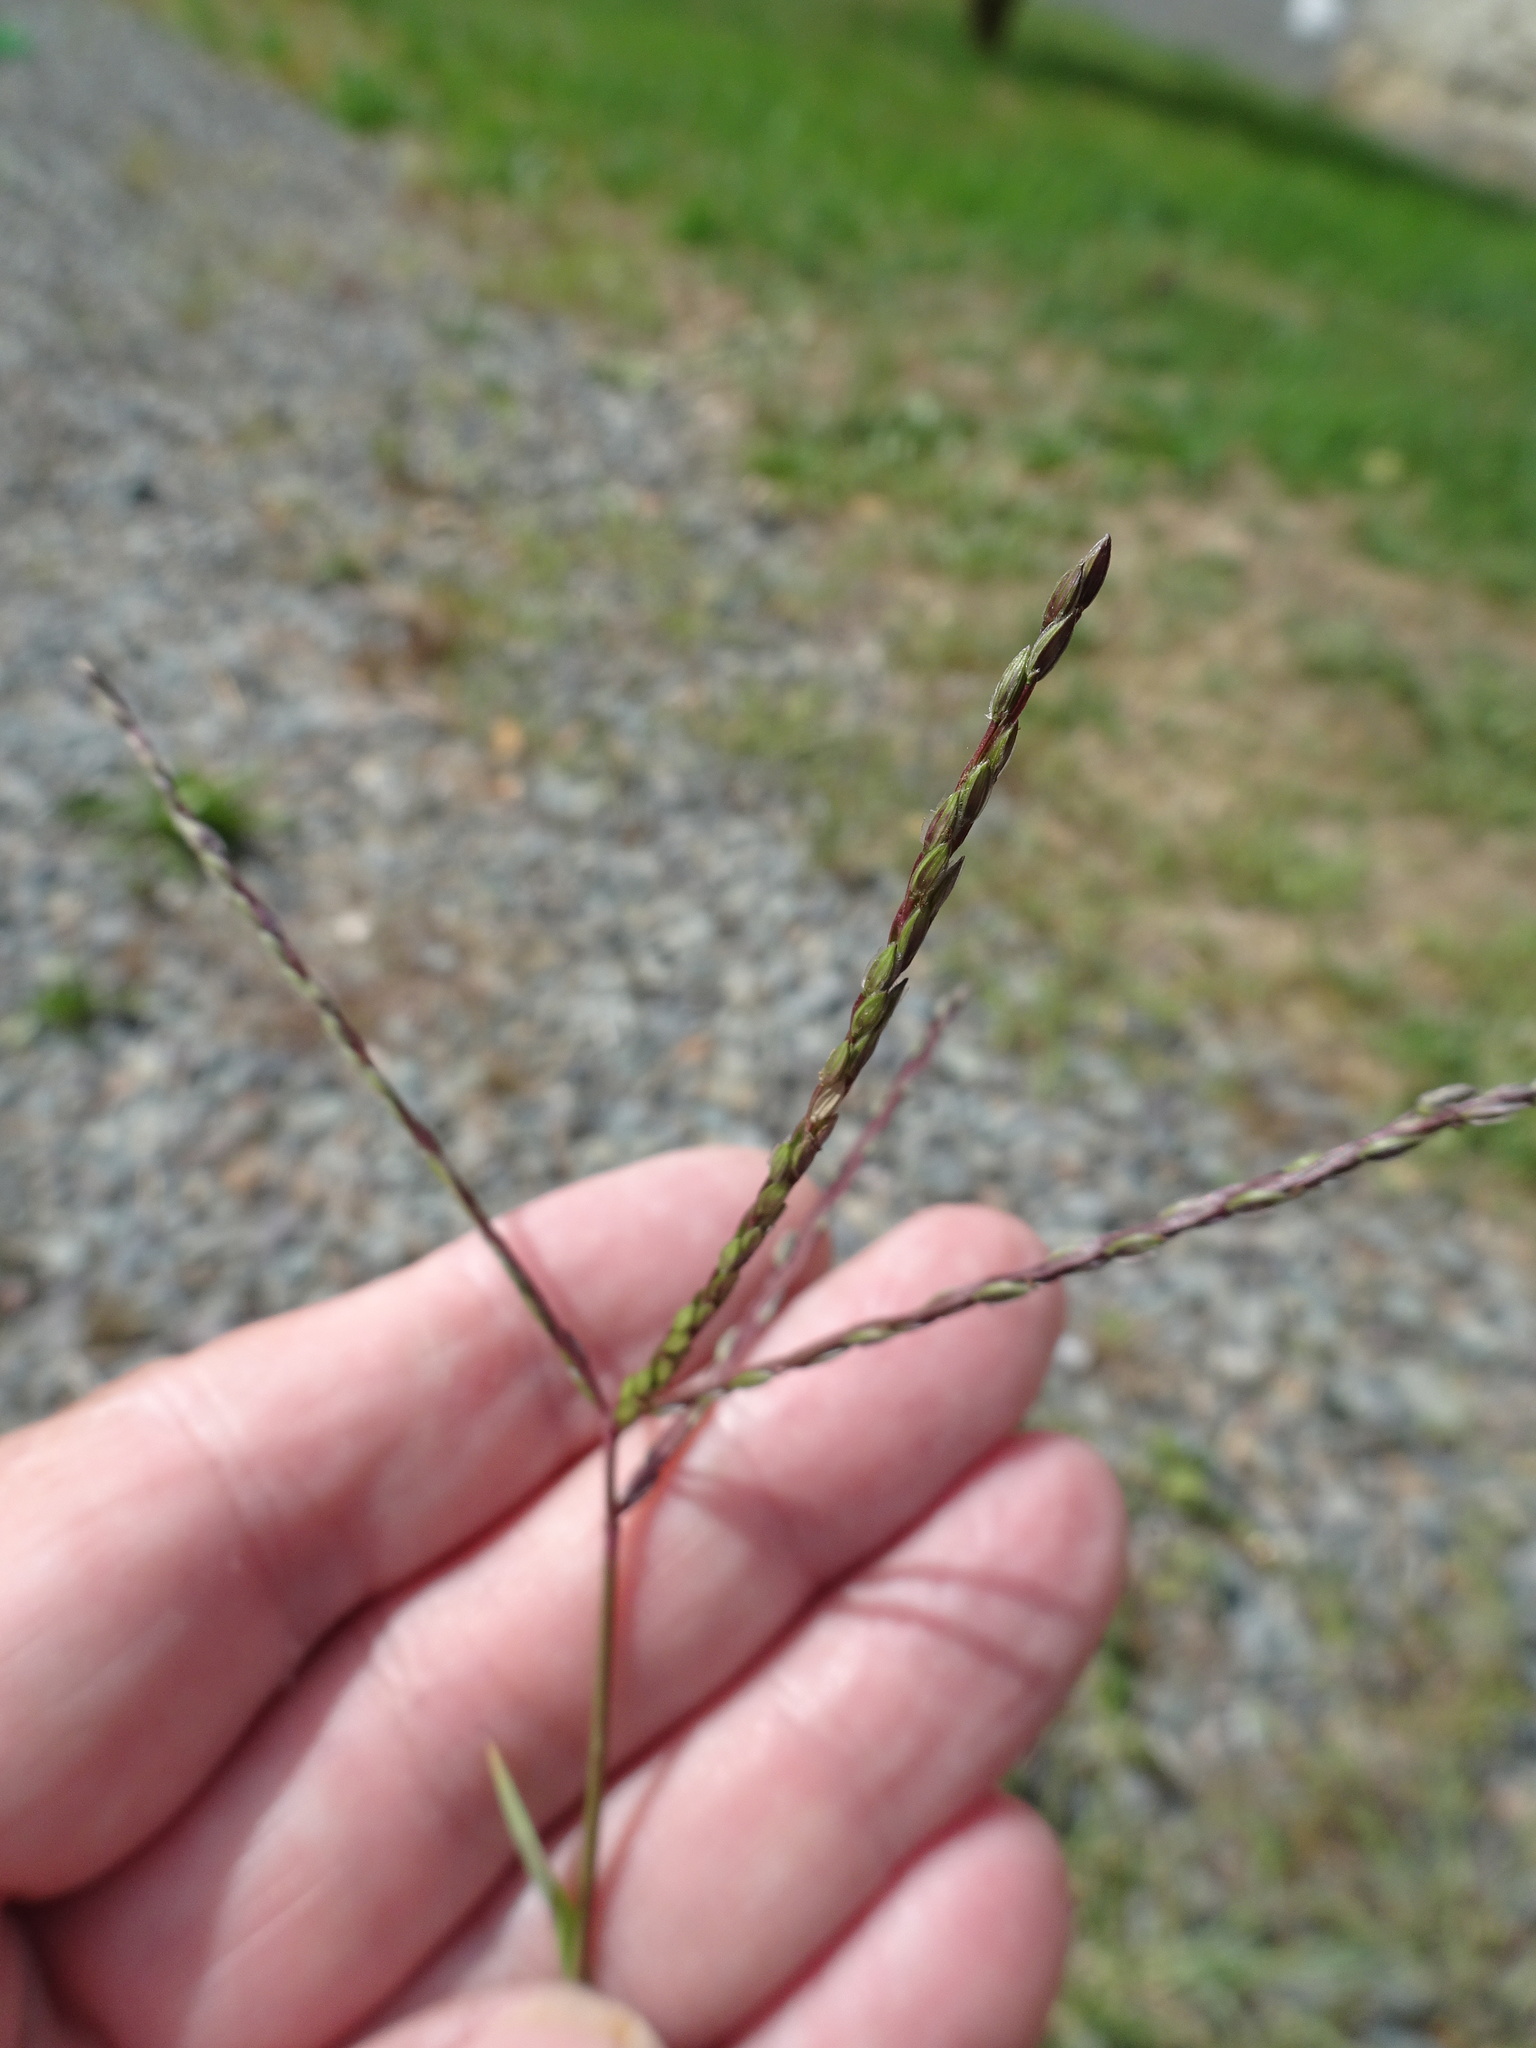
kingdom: Plantae
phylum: Tracheophyta
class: Liliopsida
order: Poales
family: Poaceae
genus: Digitaria
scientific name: Digitaria sanguinalis
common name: Hairy crabgrass
